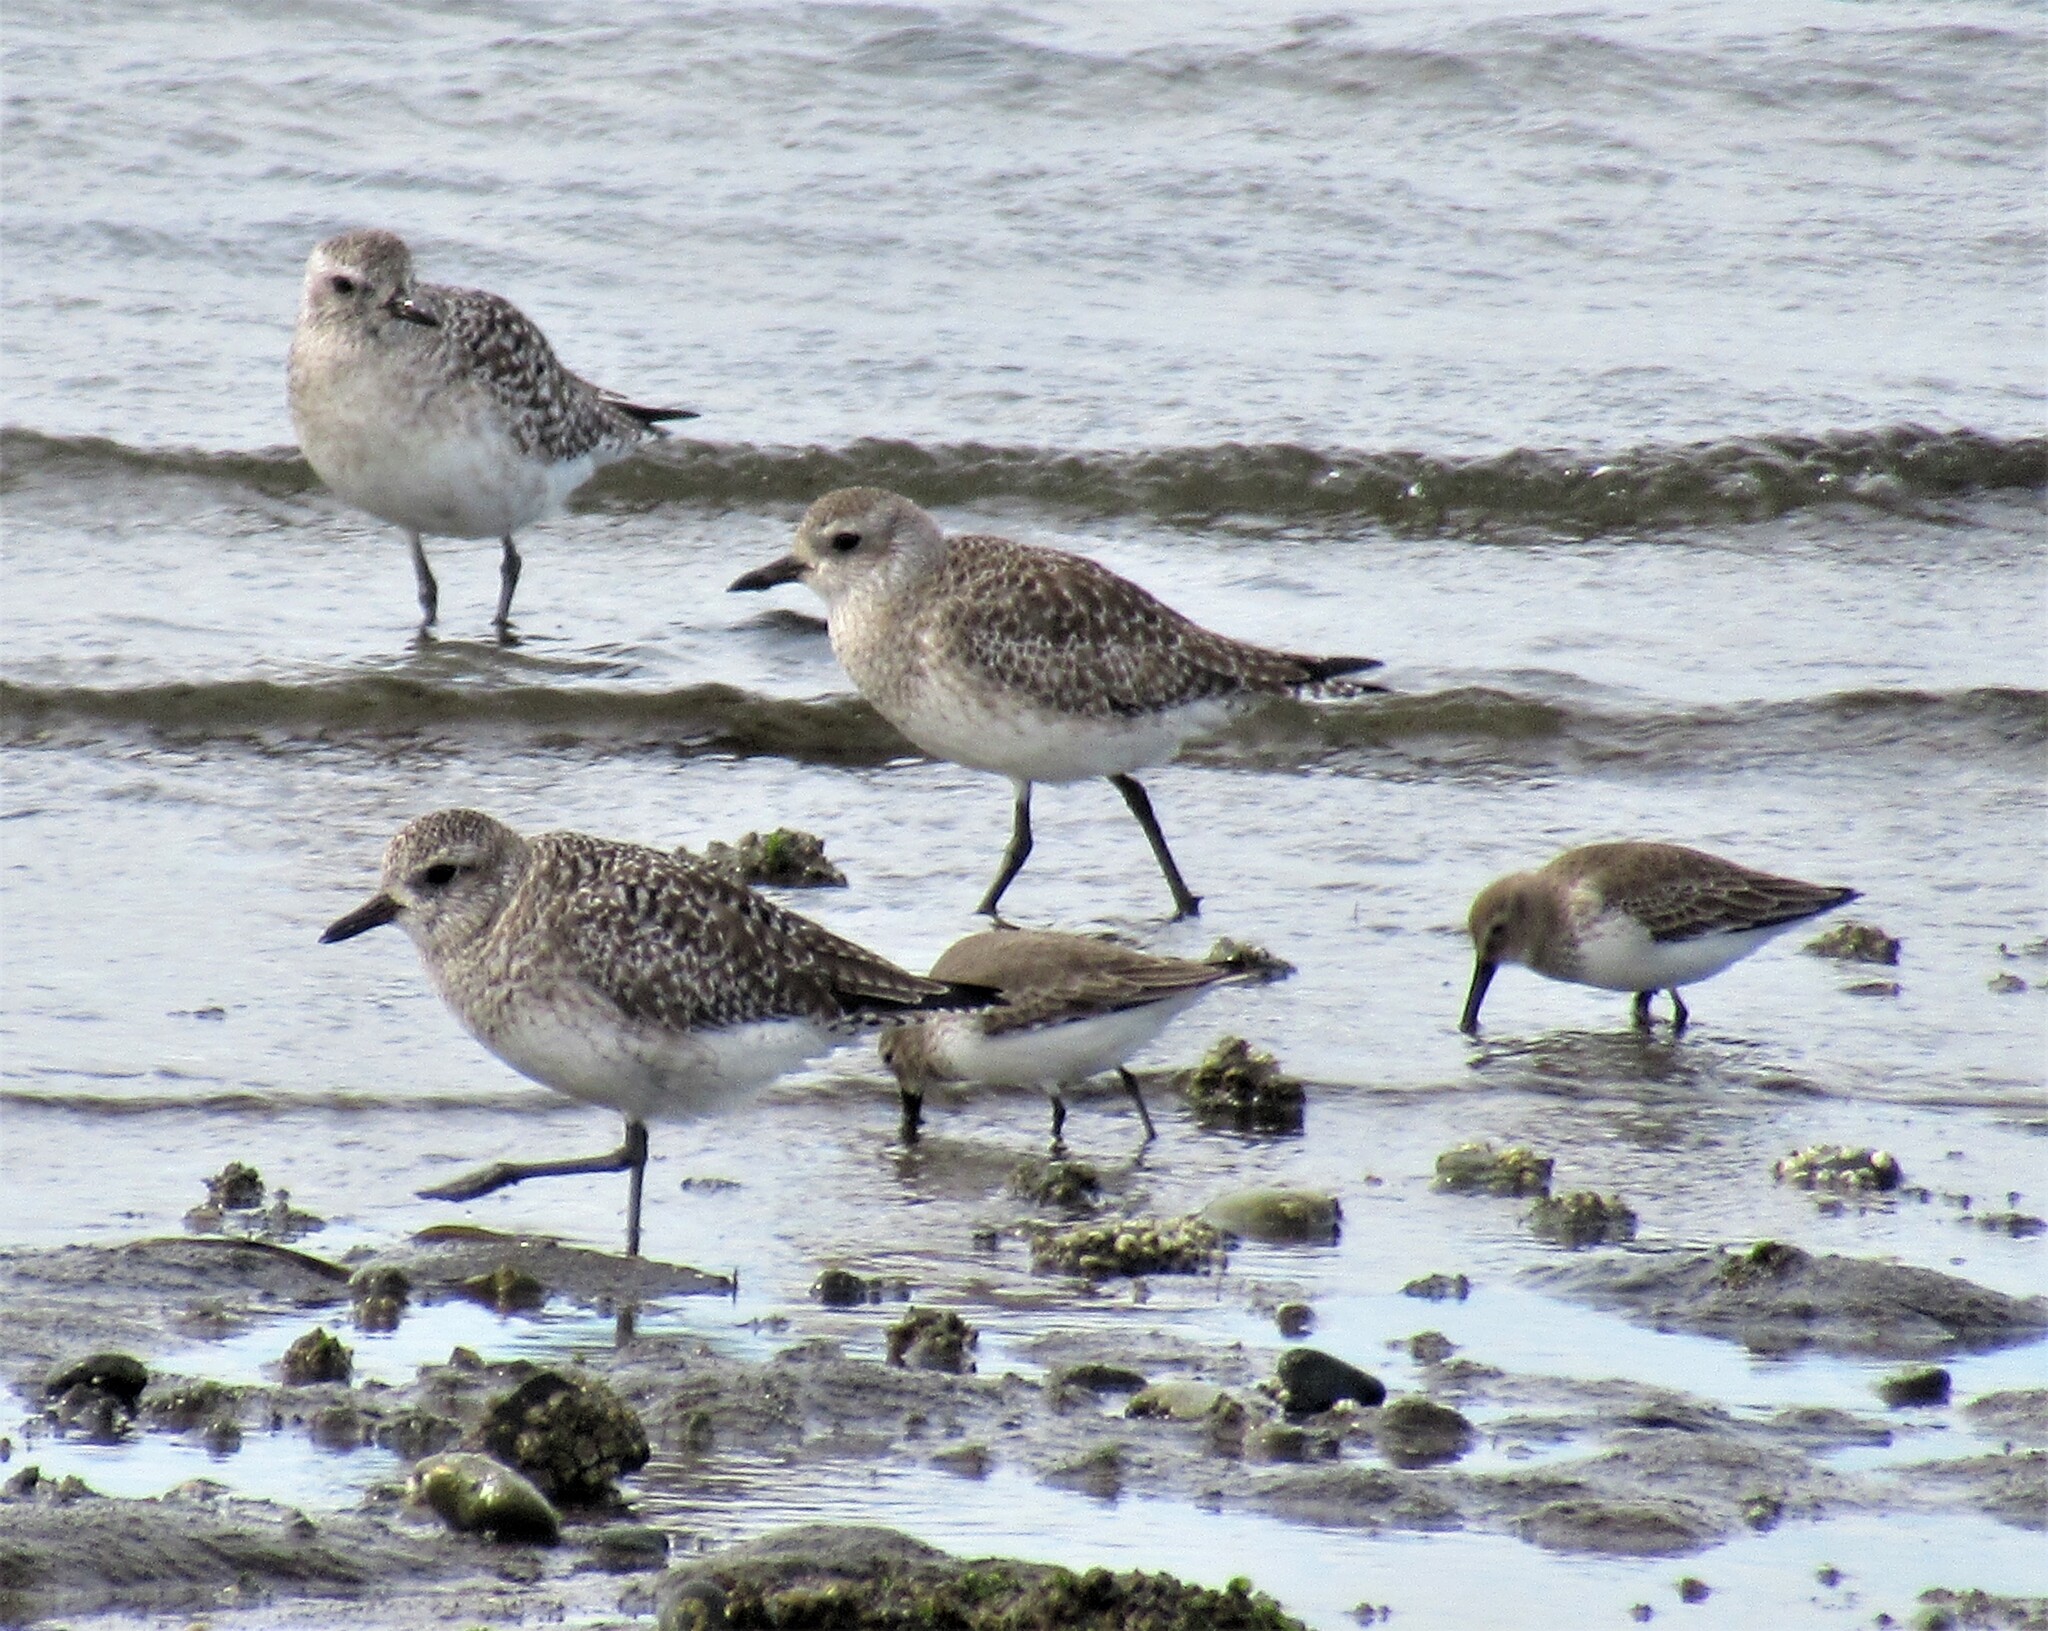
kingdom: Animalia
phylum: Chordata
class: Aves
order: Charadriiformes
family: Charadriidae
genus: Pluvialis
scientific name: Pluvialis squatarola
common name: Grey plover
